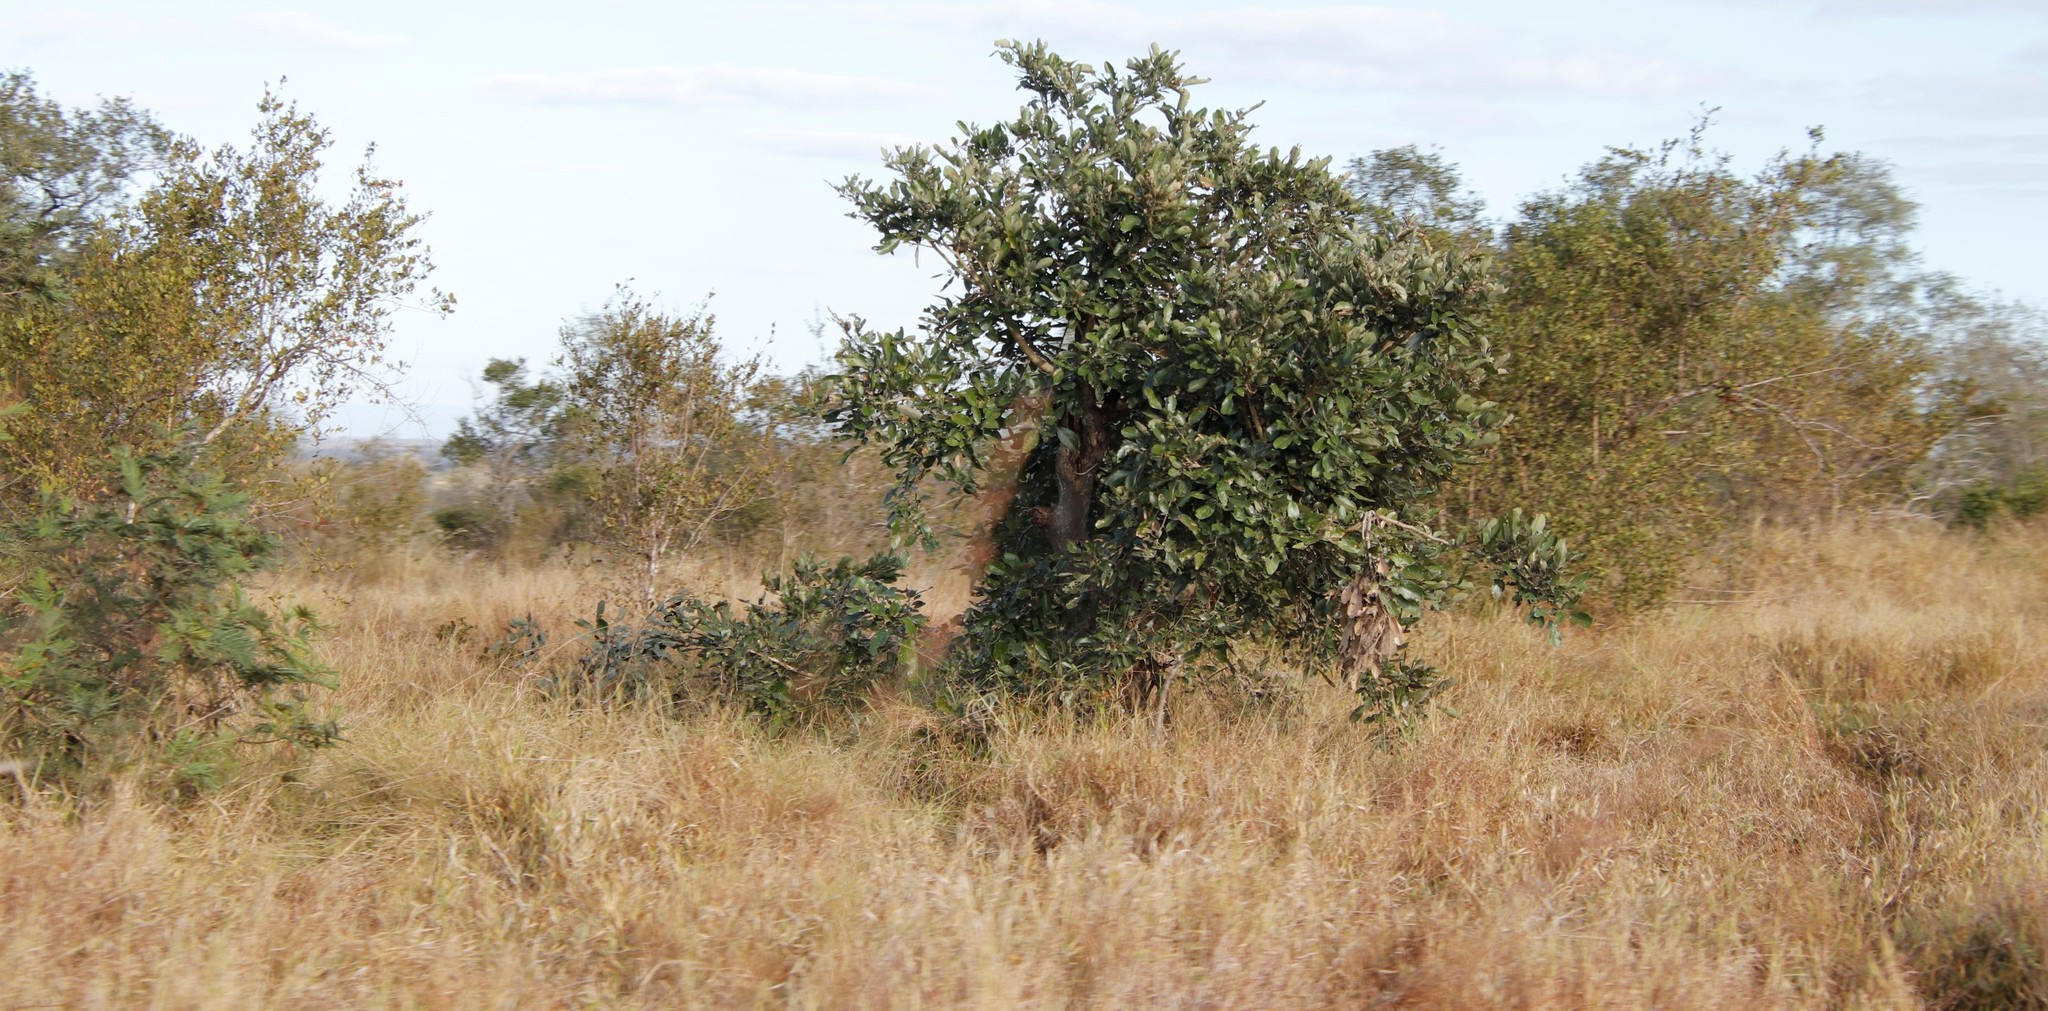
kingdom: Plantae
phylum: Tracheophyta
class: Magnoliopsida
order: Fabales
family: Fabaceae
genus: Philenoptera
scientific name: Philenoptera violacea
